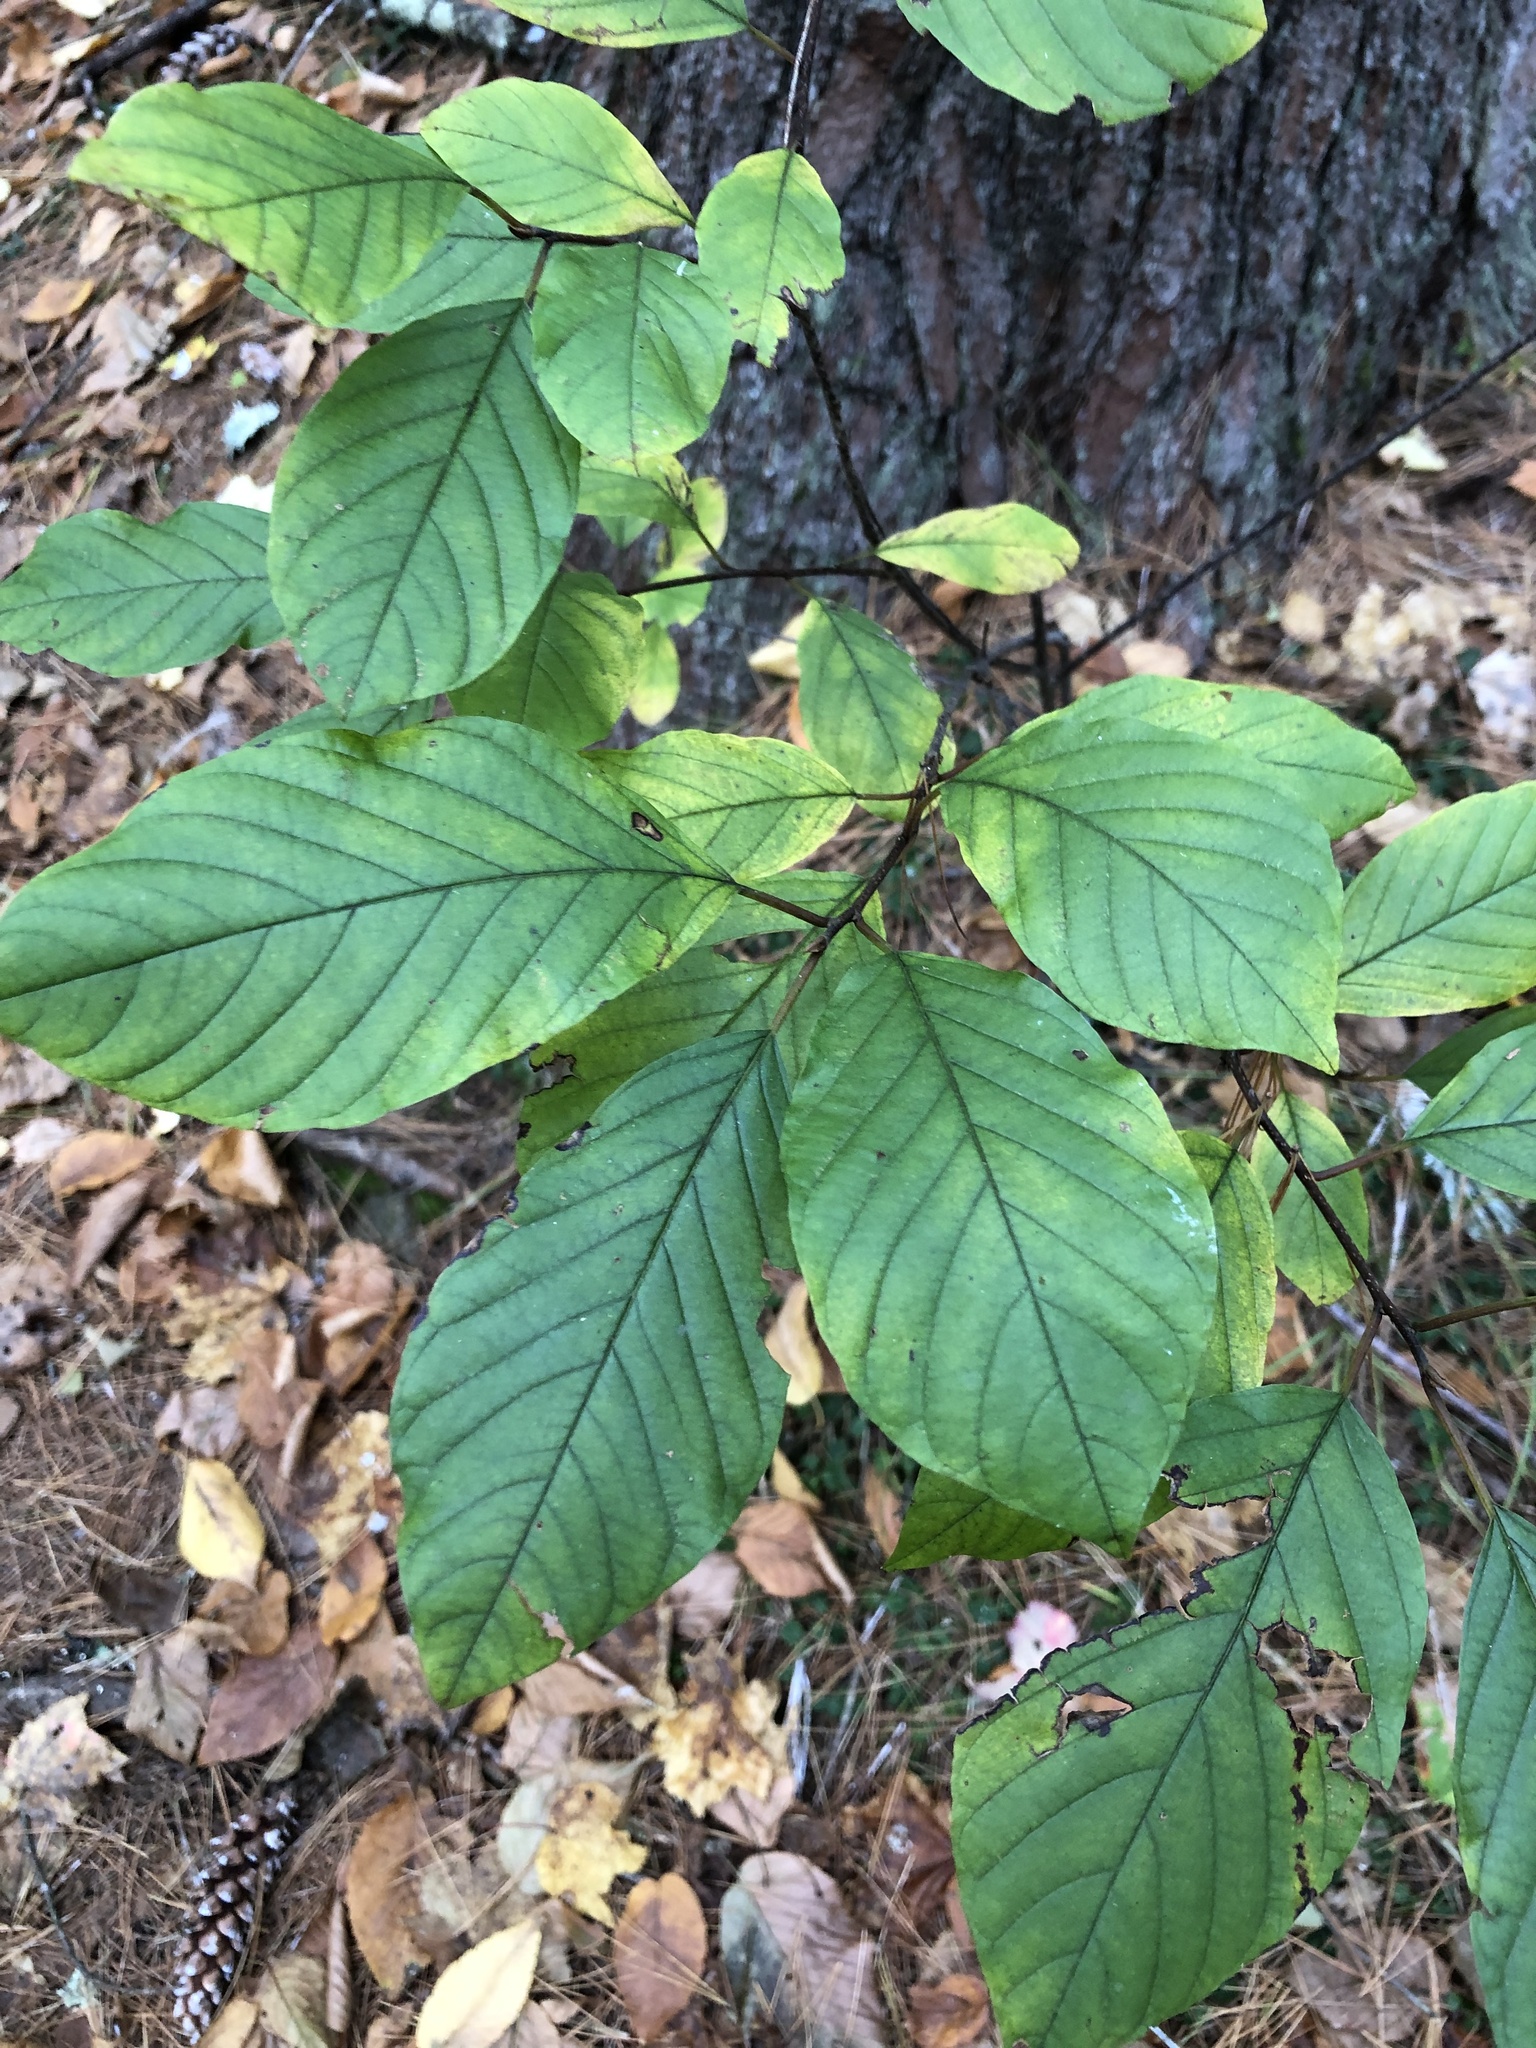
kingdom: Plantae
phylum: Tracheophyta
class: Magnoliopsida
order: Rosales
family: Rhamnaceae
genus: Frangula
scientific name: Frangula alnus
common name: Alder buckthorn
